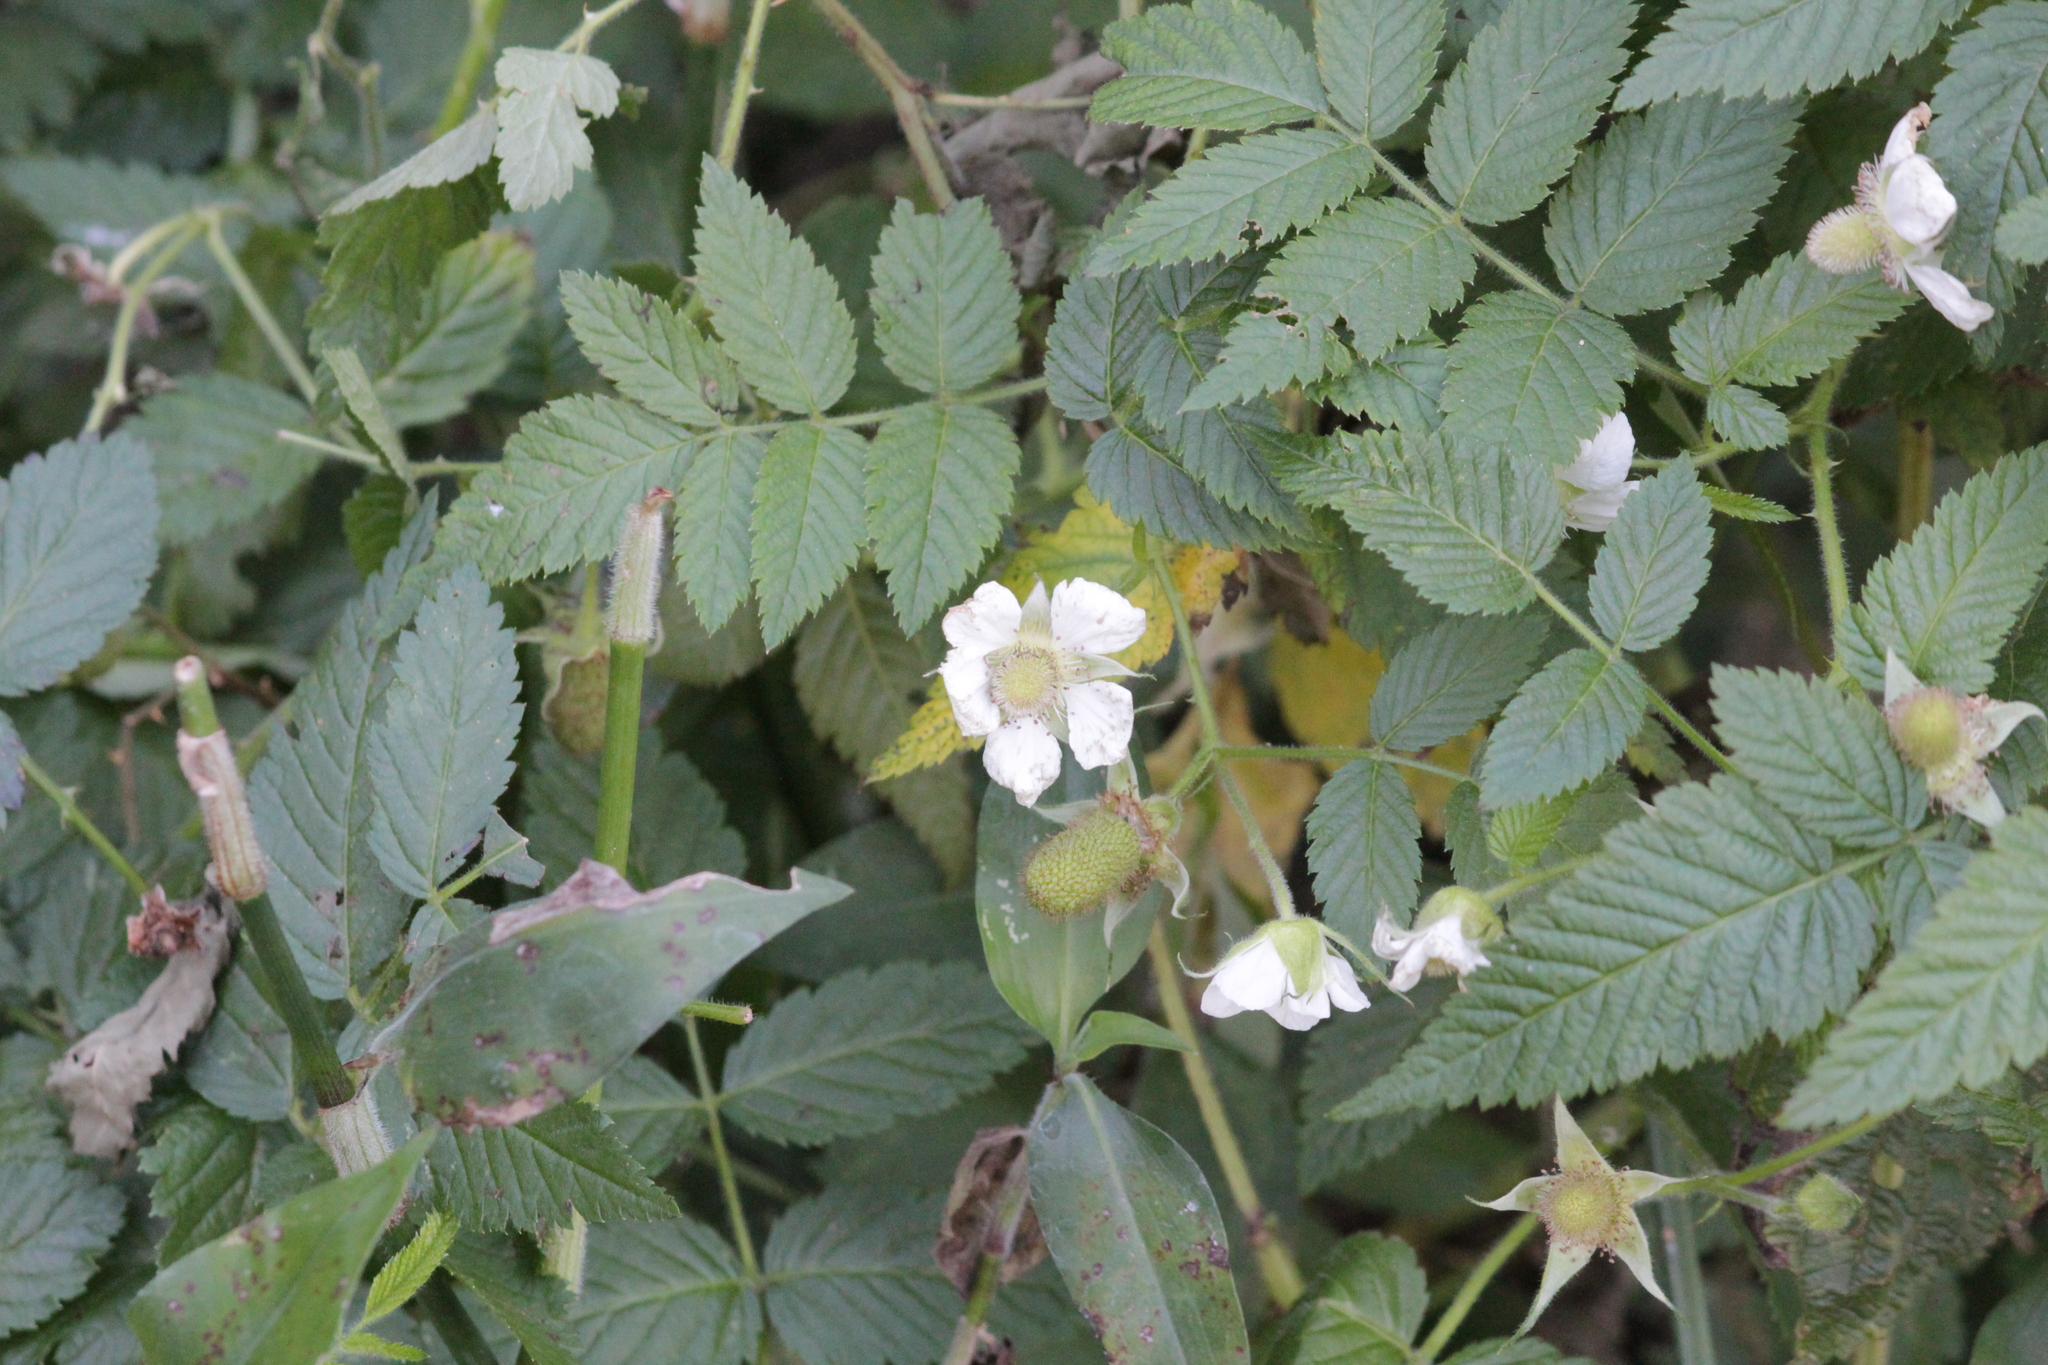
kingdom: Plantae
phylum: Tracheophyta
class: Magnoliopsida
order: Rosales
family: Rosaceae
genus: Rubus
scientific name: Rubus rosifolius
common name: Roseleaf raspberry
